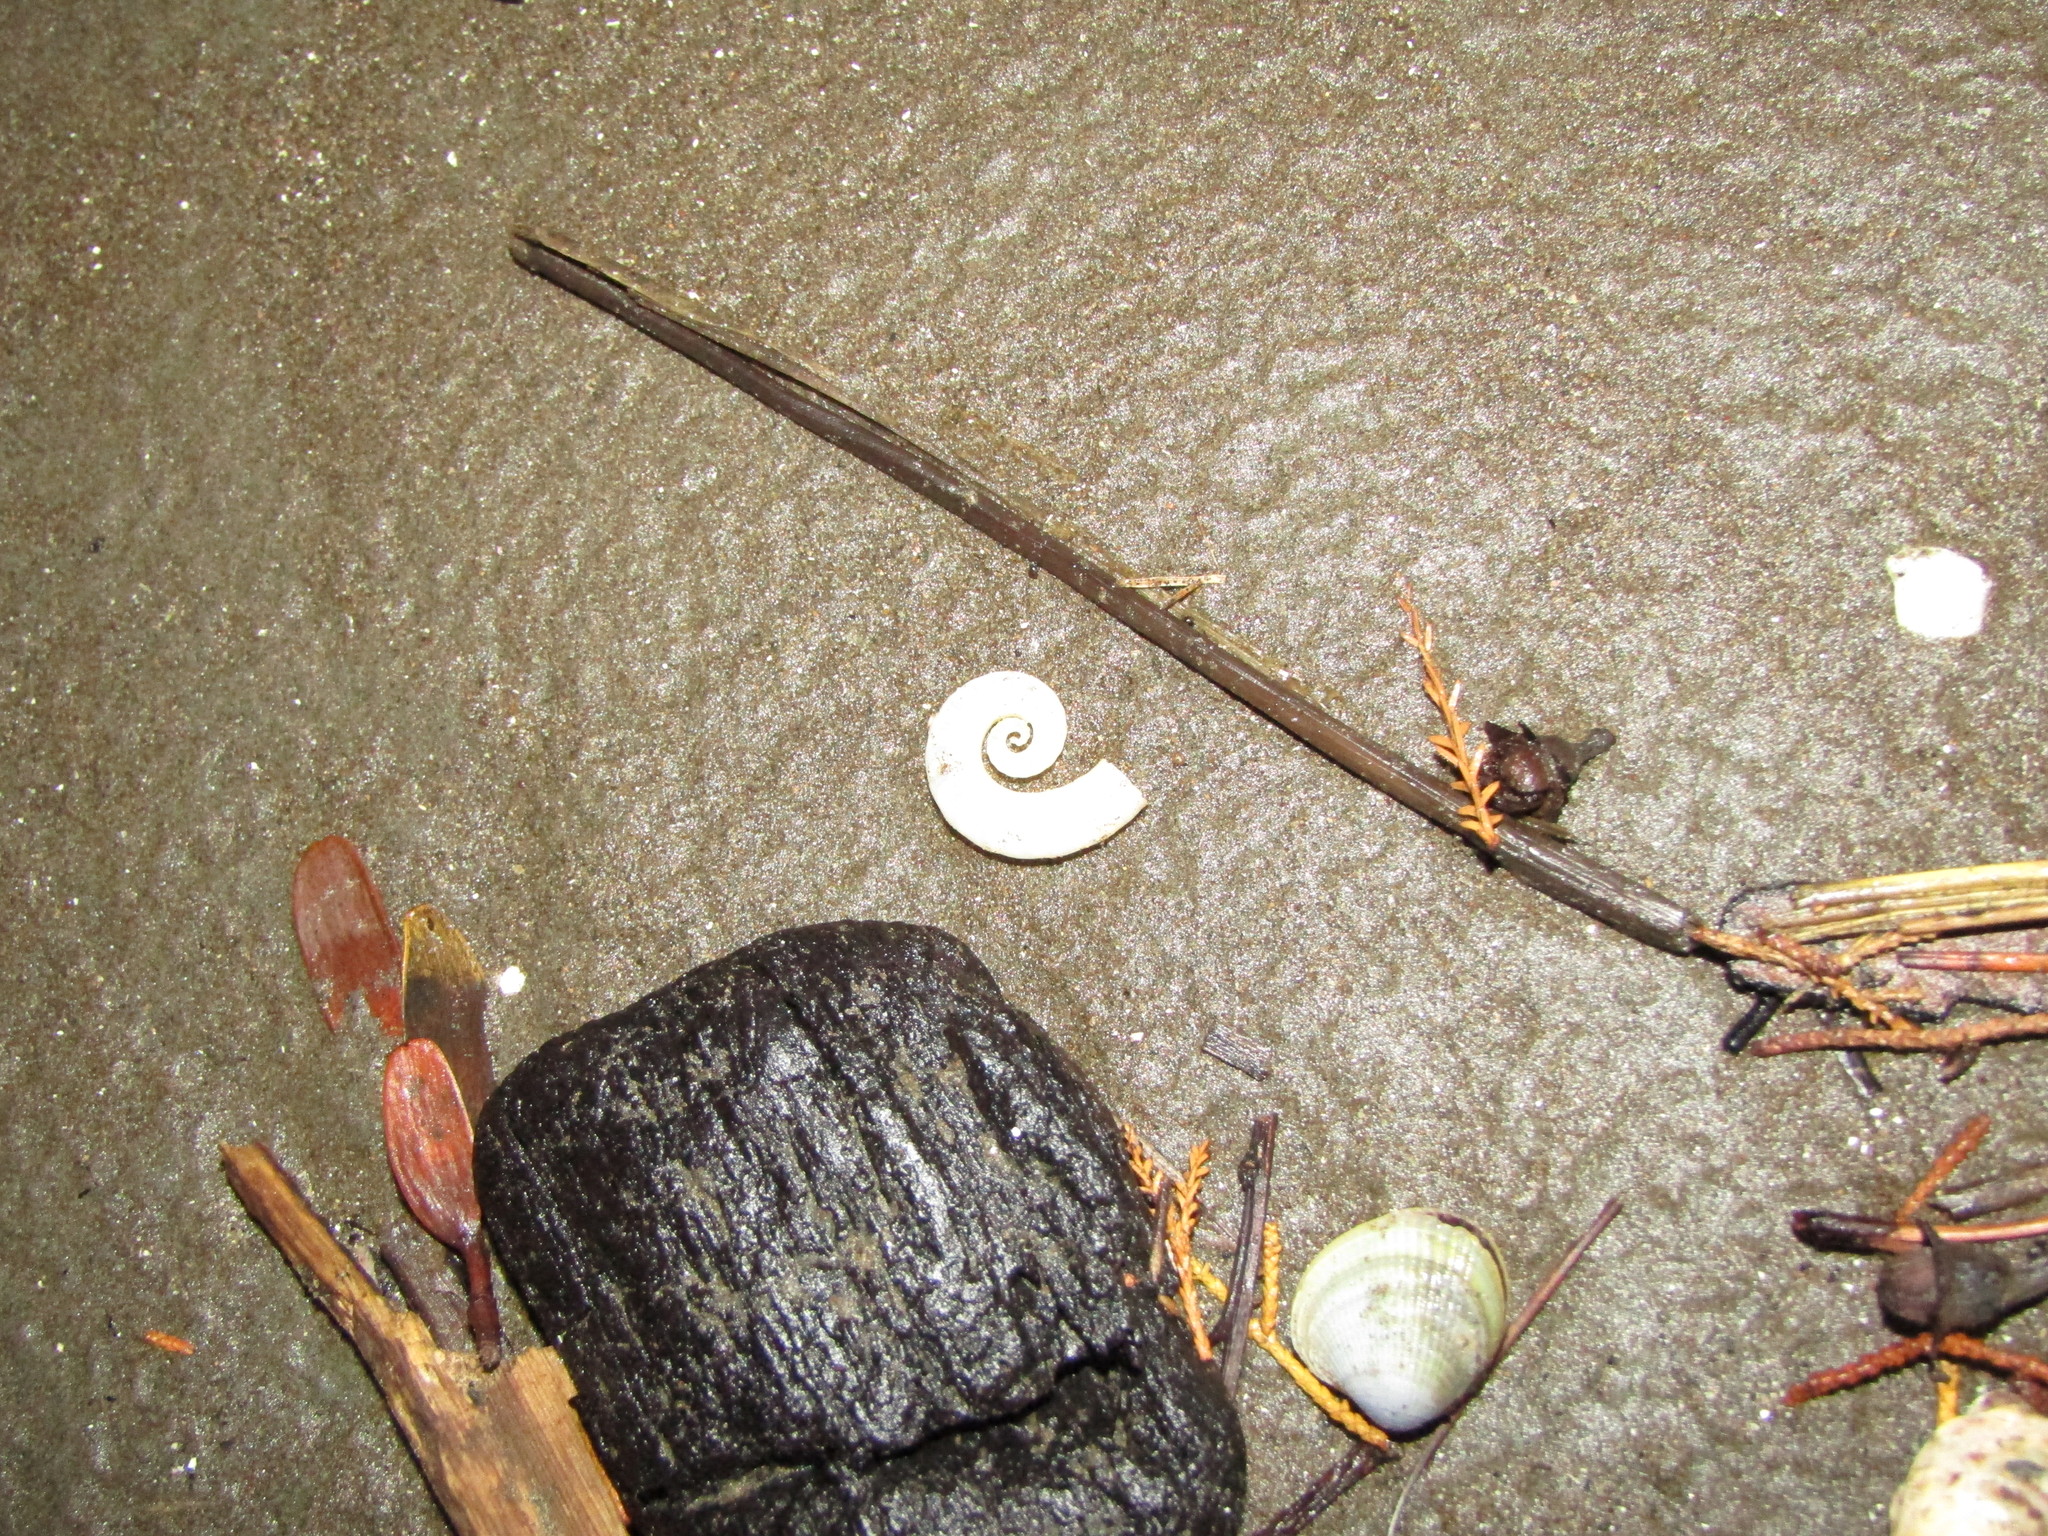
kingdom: Animalia
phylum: Mollusca
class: Cephalopoda
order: Spirulida
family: Spirulidae
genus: Spirula
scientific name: Spirula spirula
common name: Ram's horn squid
